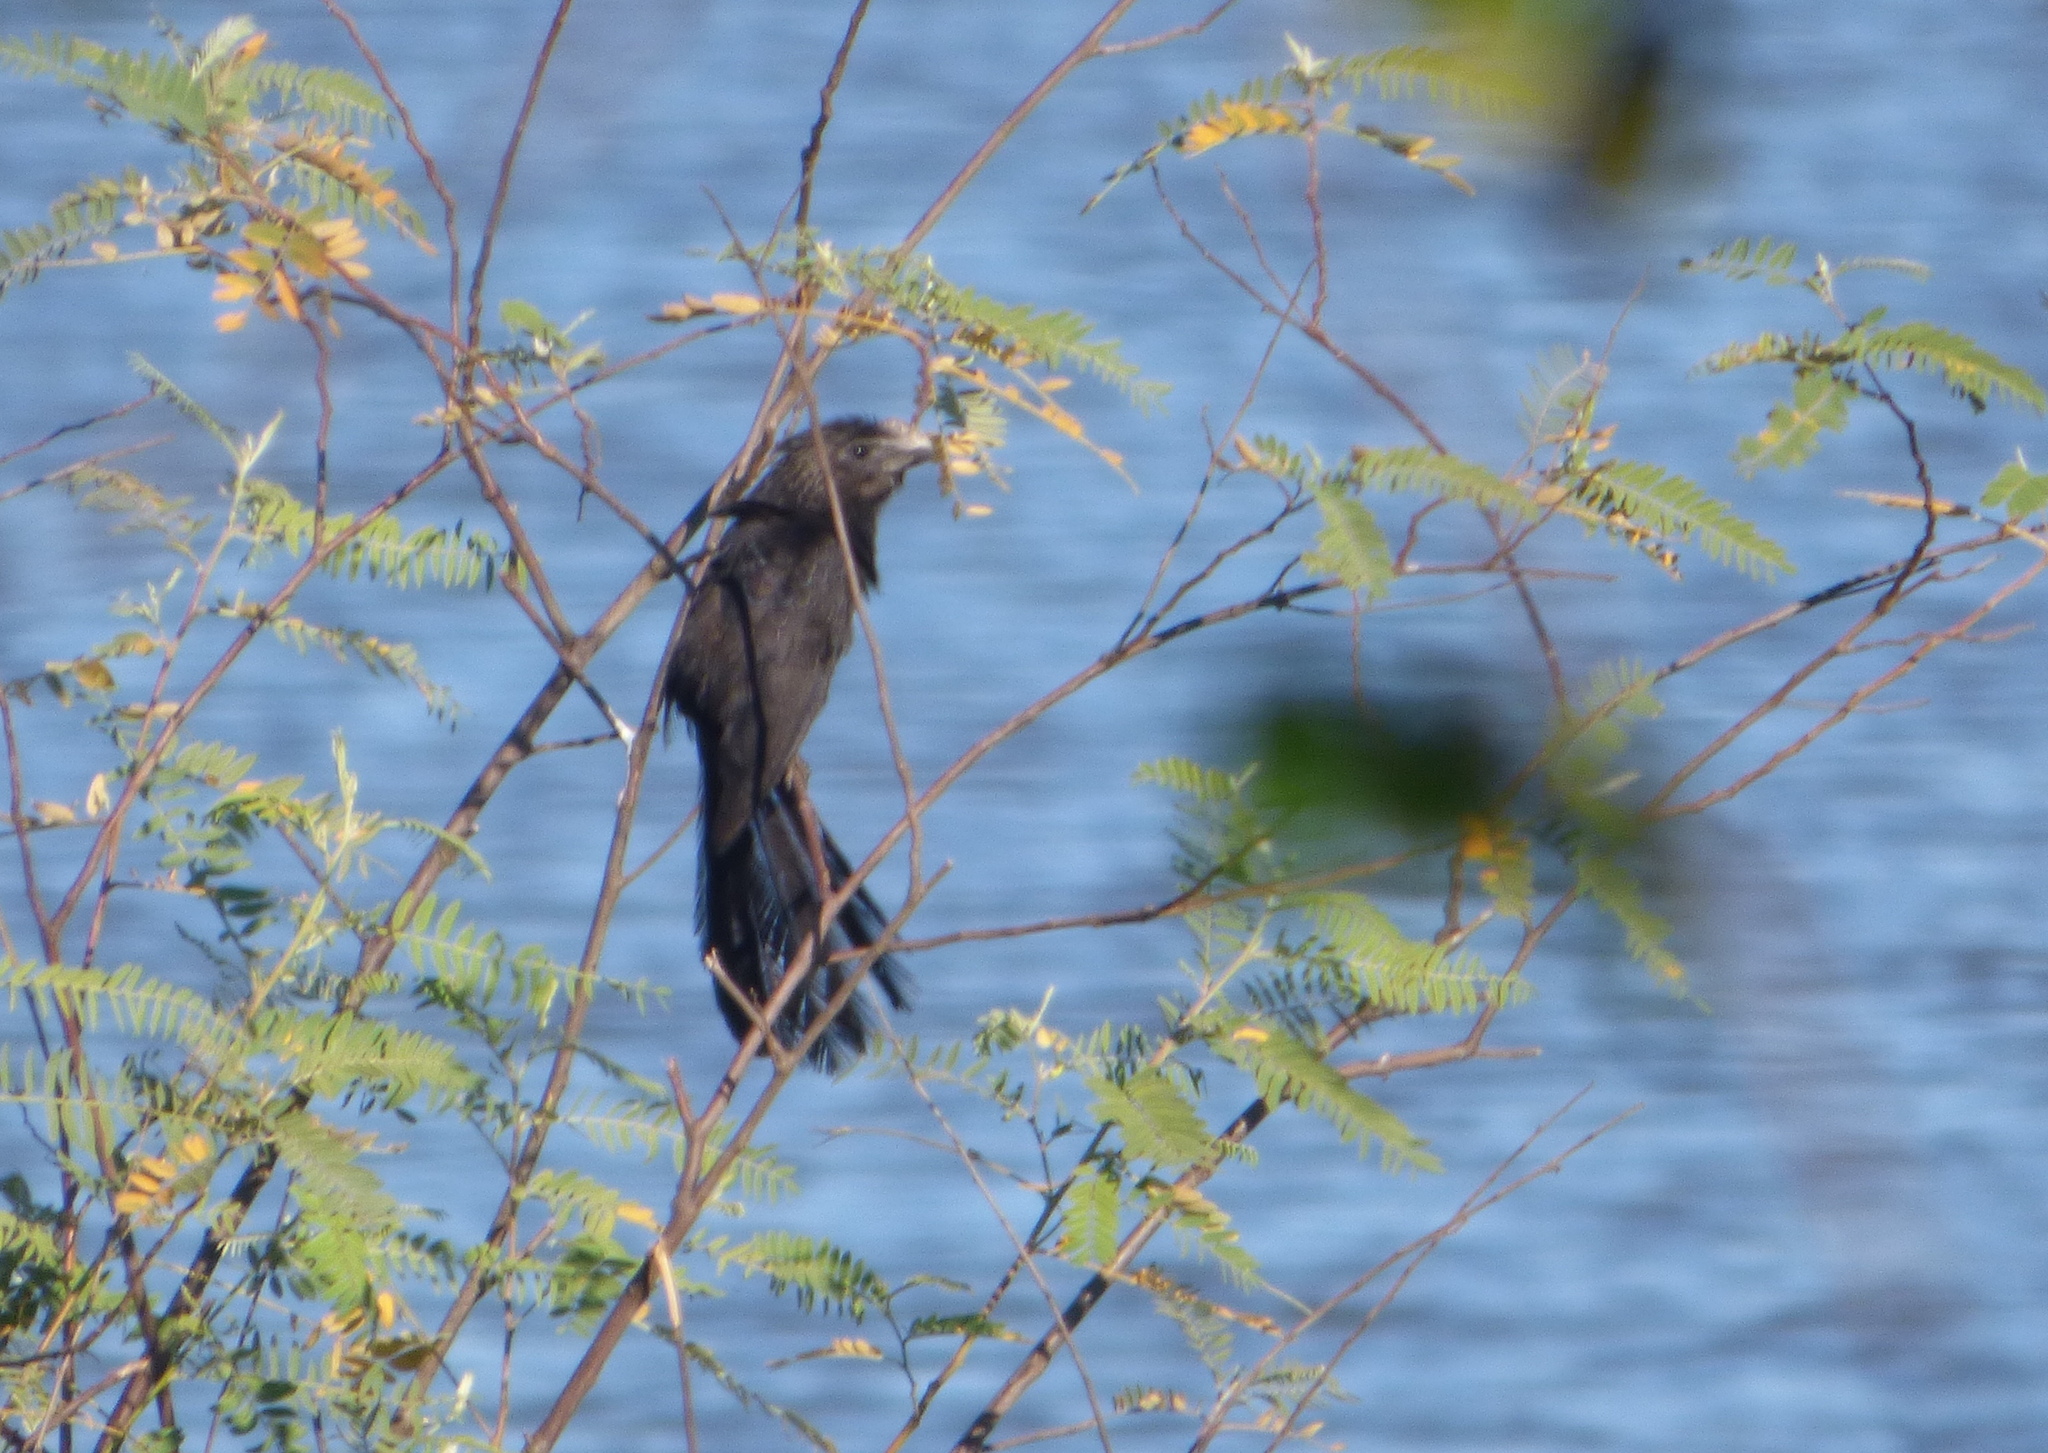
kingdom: Animalia
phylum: Chordata
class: Aves
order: Cuculiformes
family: Cuculidae
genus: Crotophaga
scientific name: Crotophaga ani
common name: Smooth-billed ani
